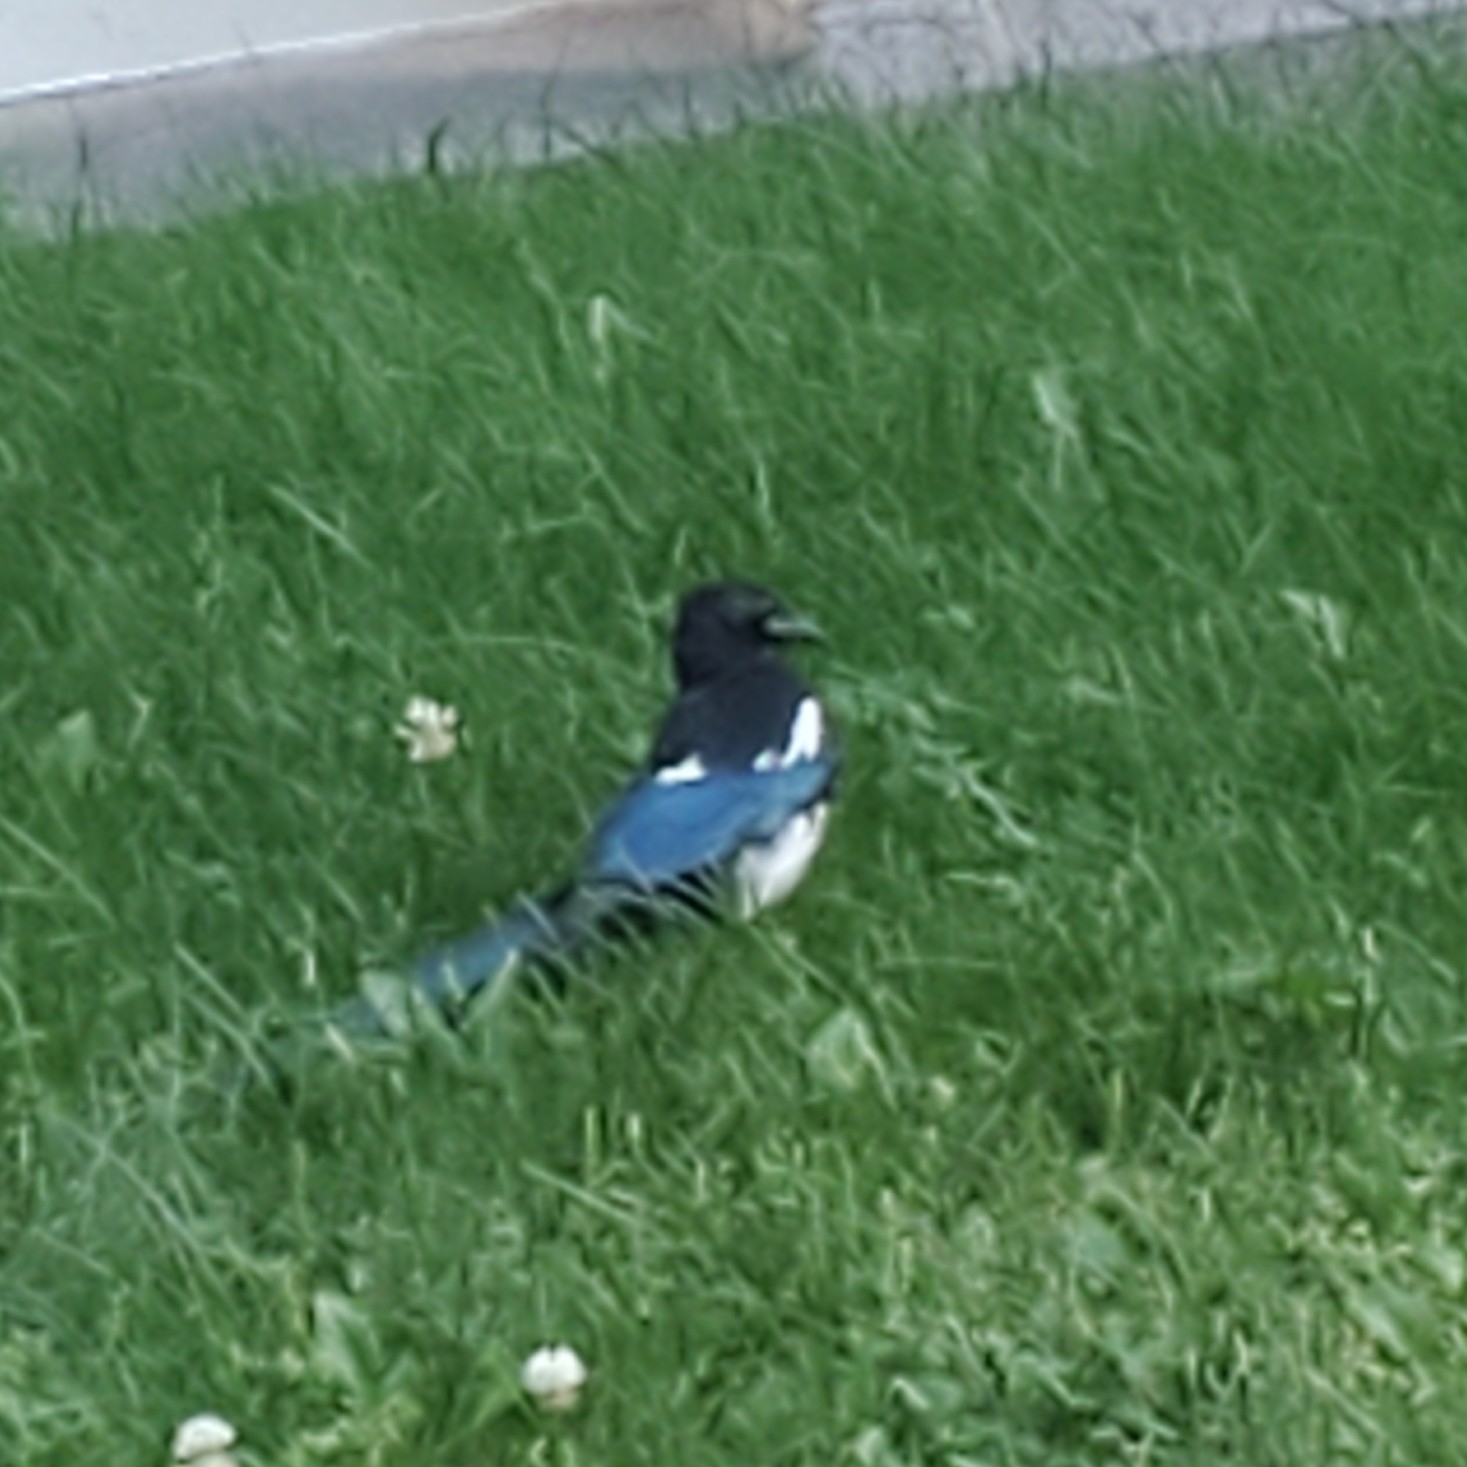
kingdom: Animalia
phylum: Chordata
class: Aves
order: Passeriformes
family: Corvidae
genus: Pica
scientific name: Pica hudsonia
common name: Black-billed magpie
